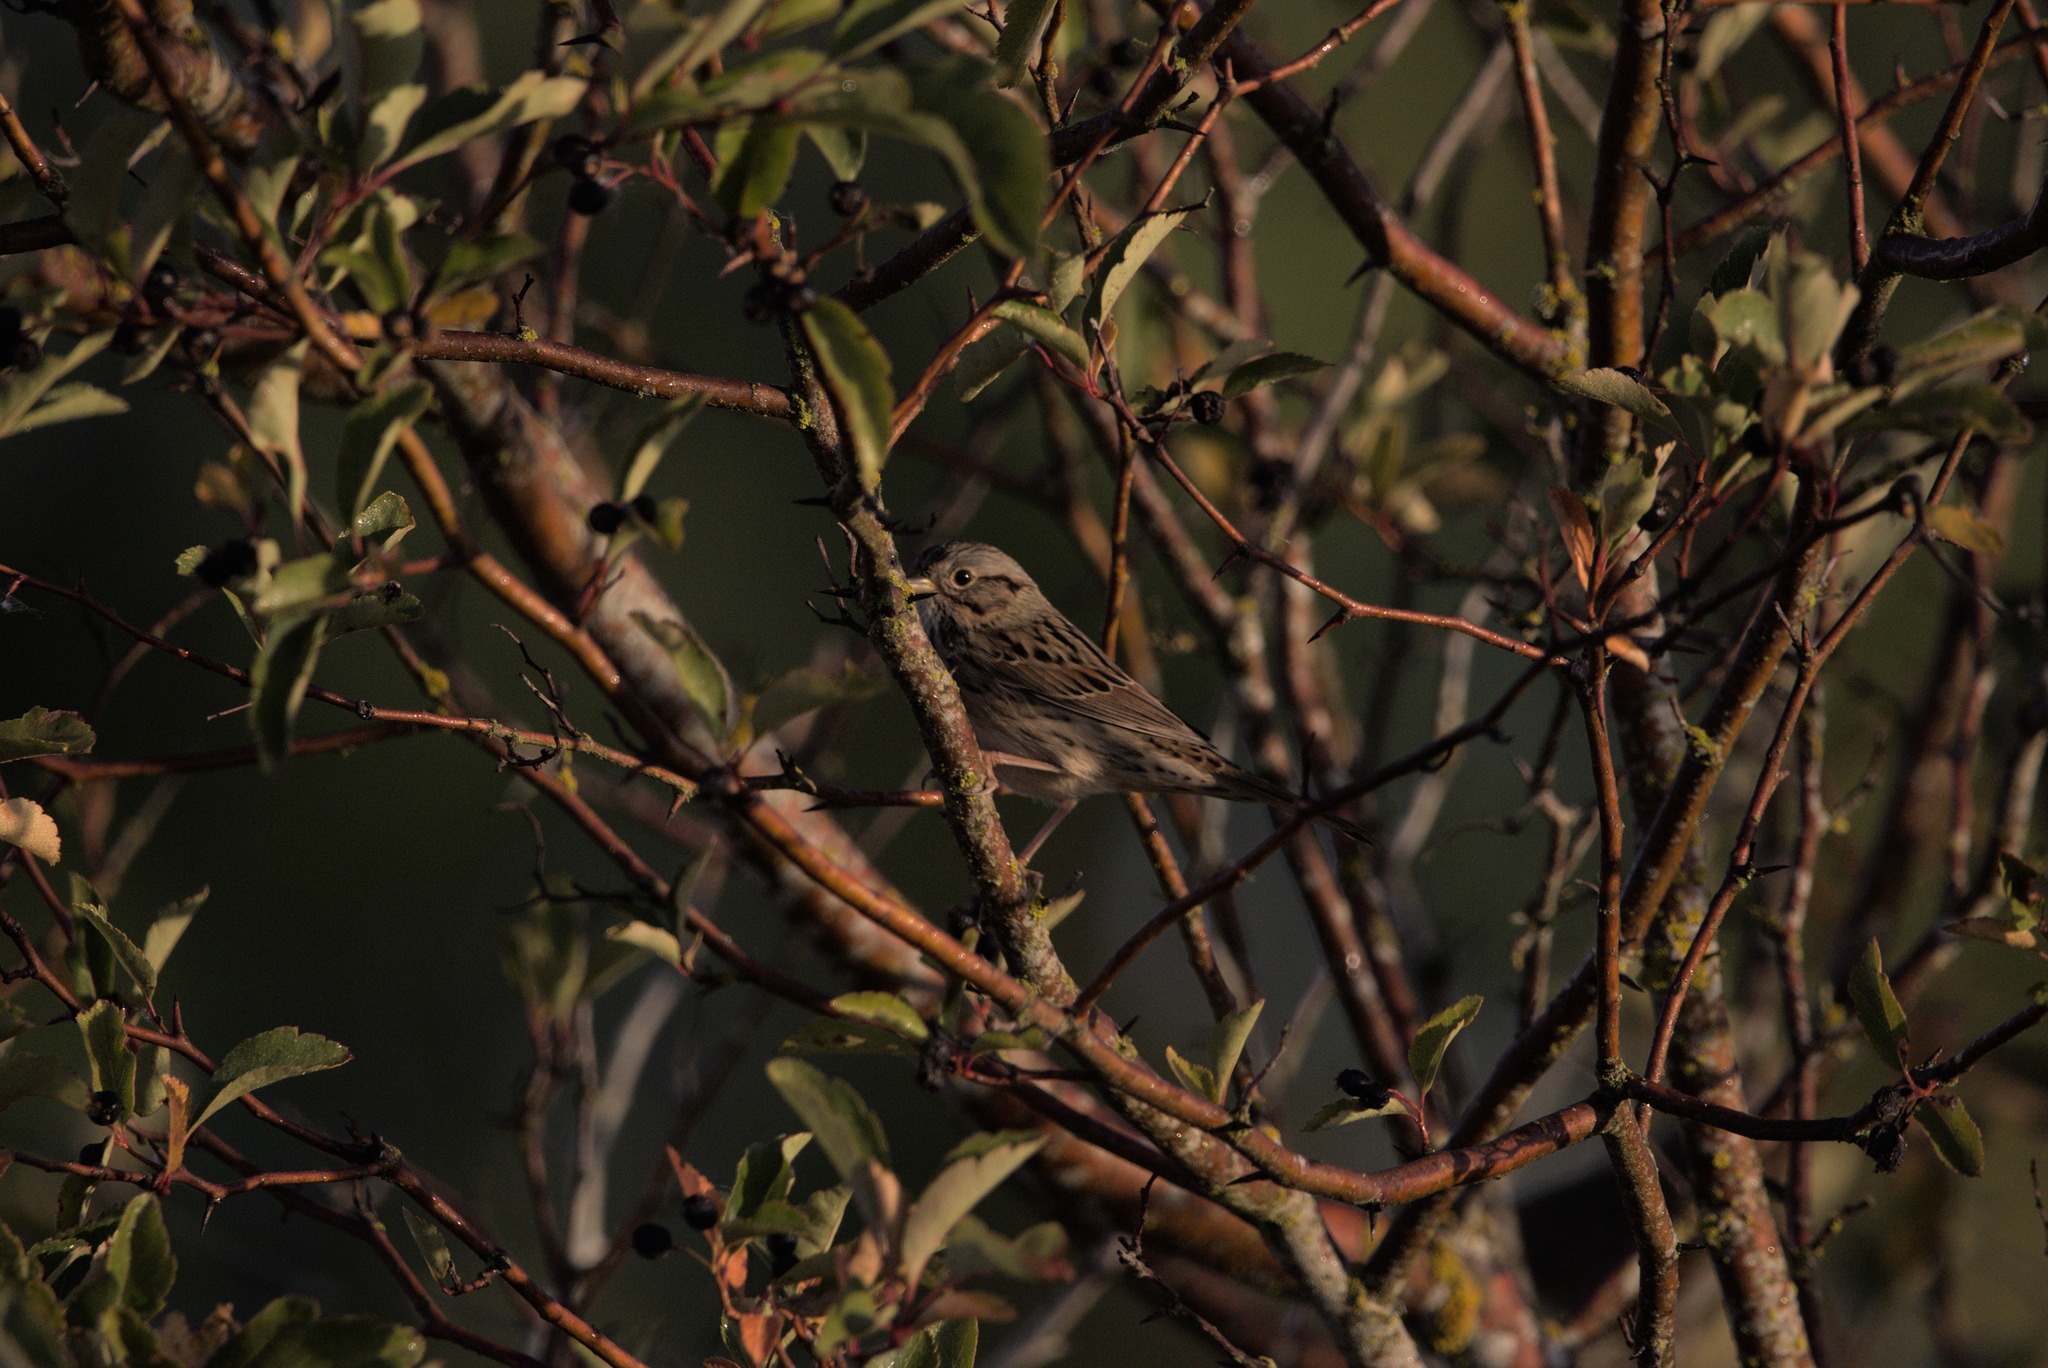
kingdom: Animalia
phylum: Chordata
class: Aves
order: Passeriformes
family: Passerellidae
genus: Melospiza
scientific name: Melospiza lincolnii
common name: Lincoln's sparrow
